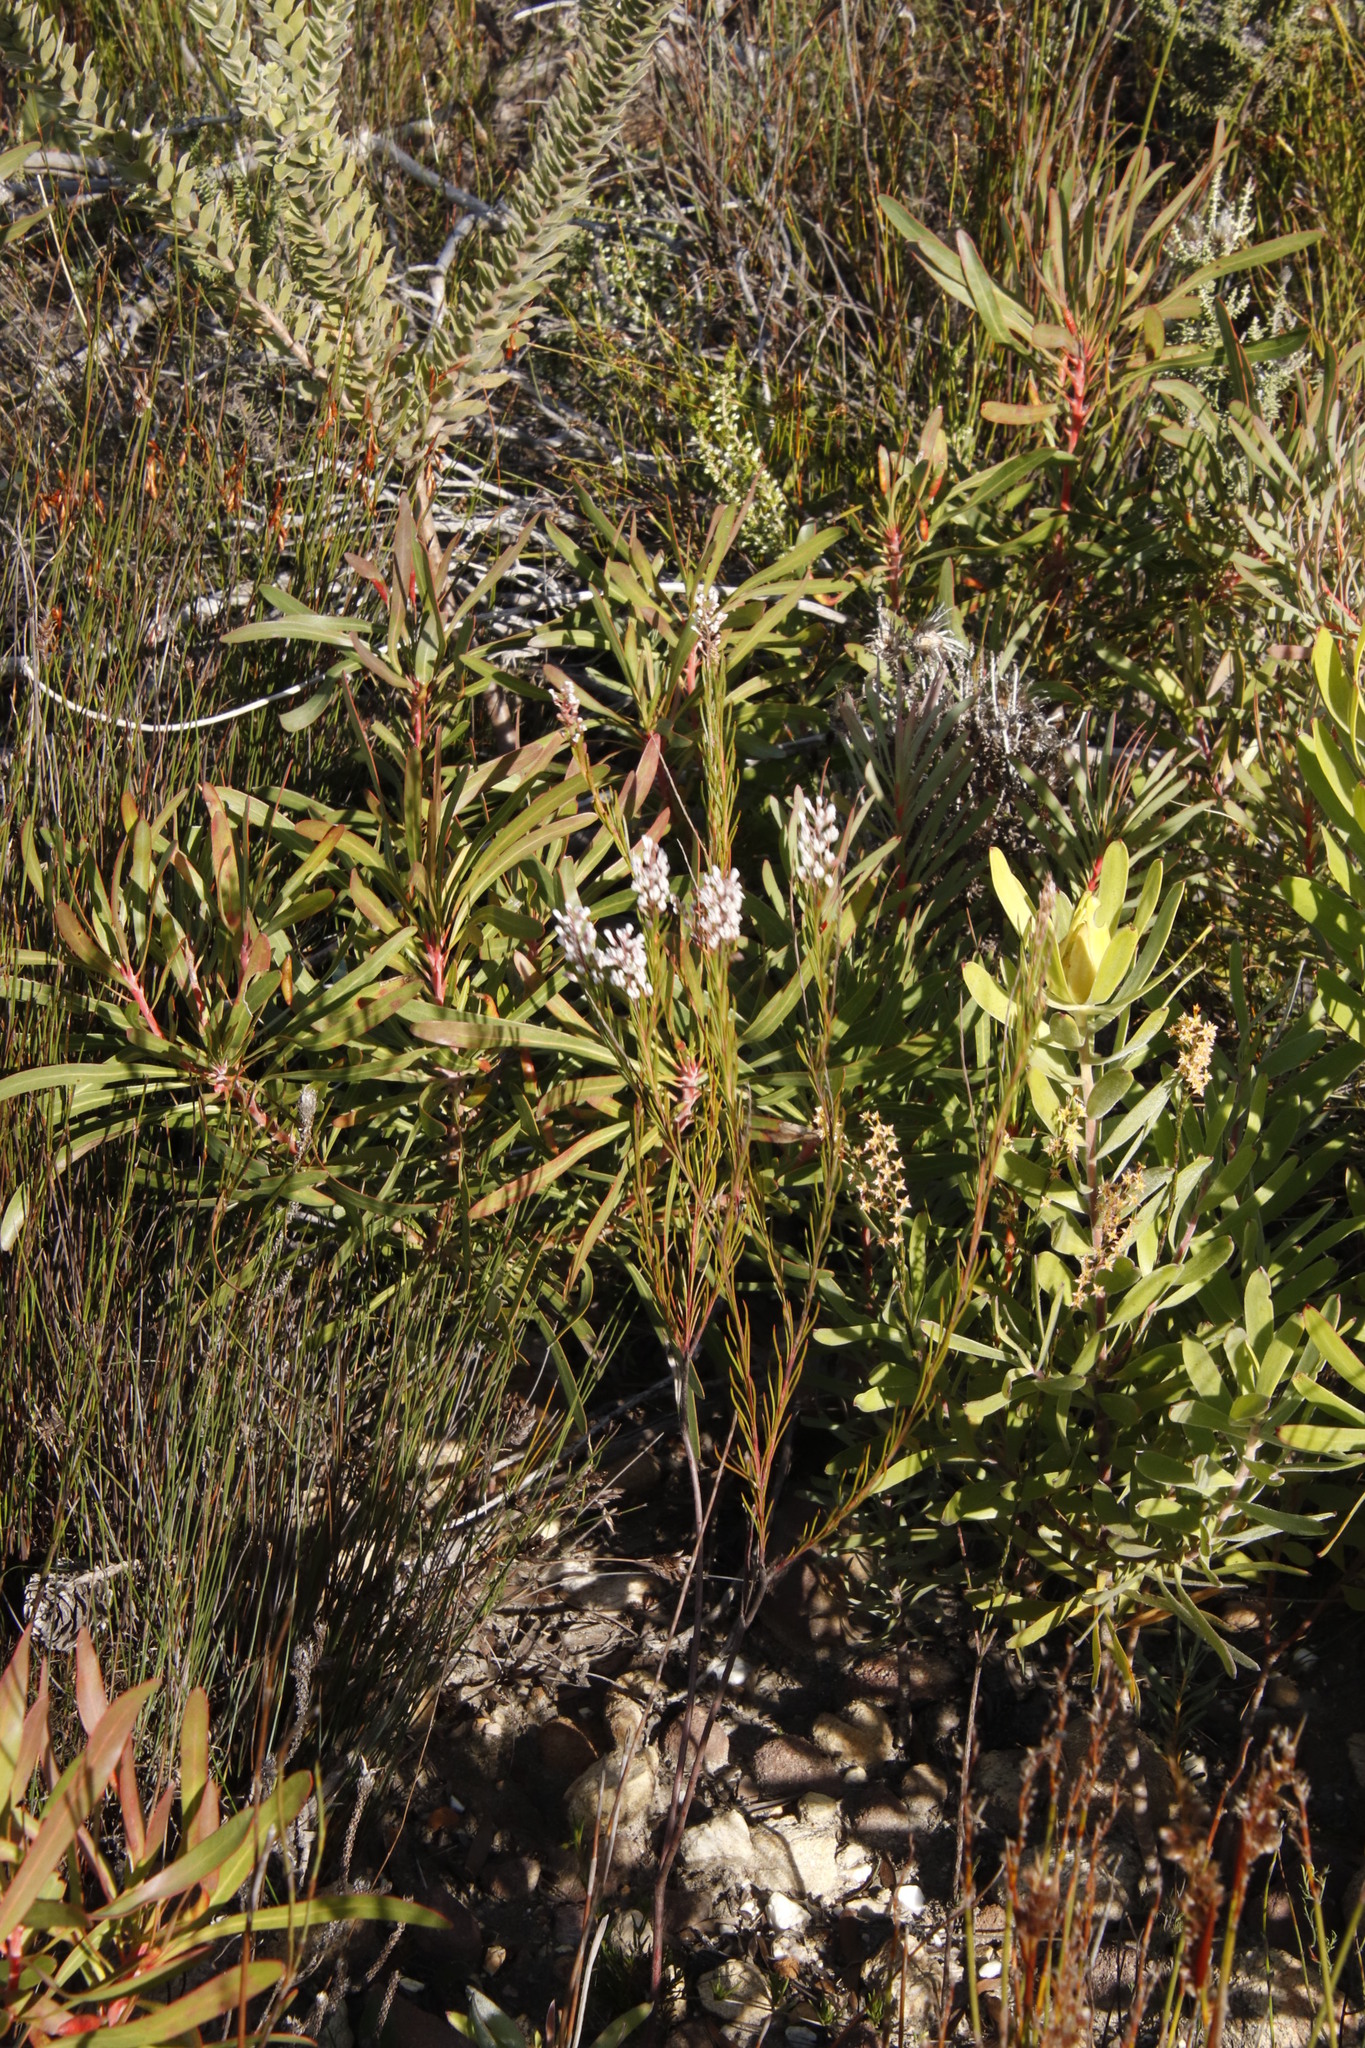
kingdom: Plantae
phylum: Tracheophyta
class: Magnoliopsida
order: Proteales
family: Proteaceae
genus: Spatalla
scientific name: Spatalla racemosa
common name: Lax-stalked spoon
